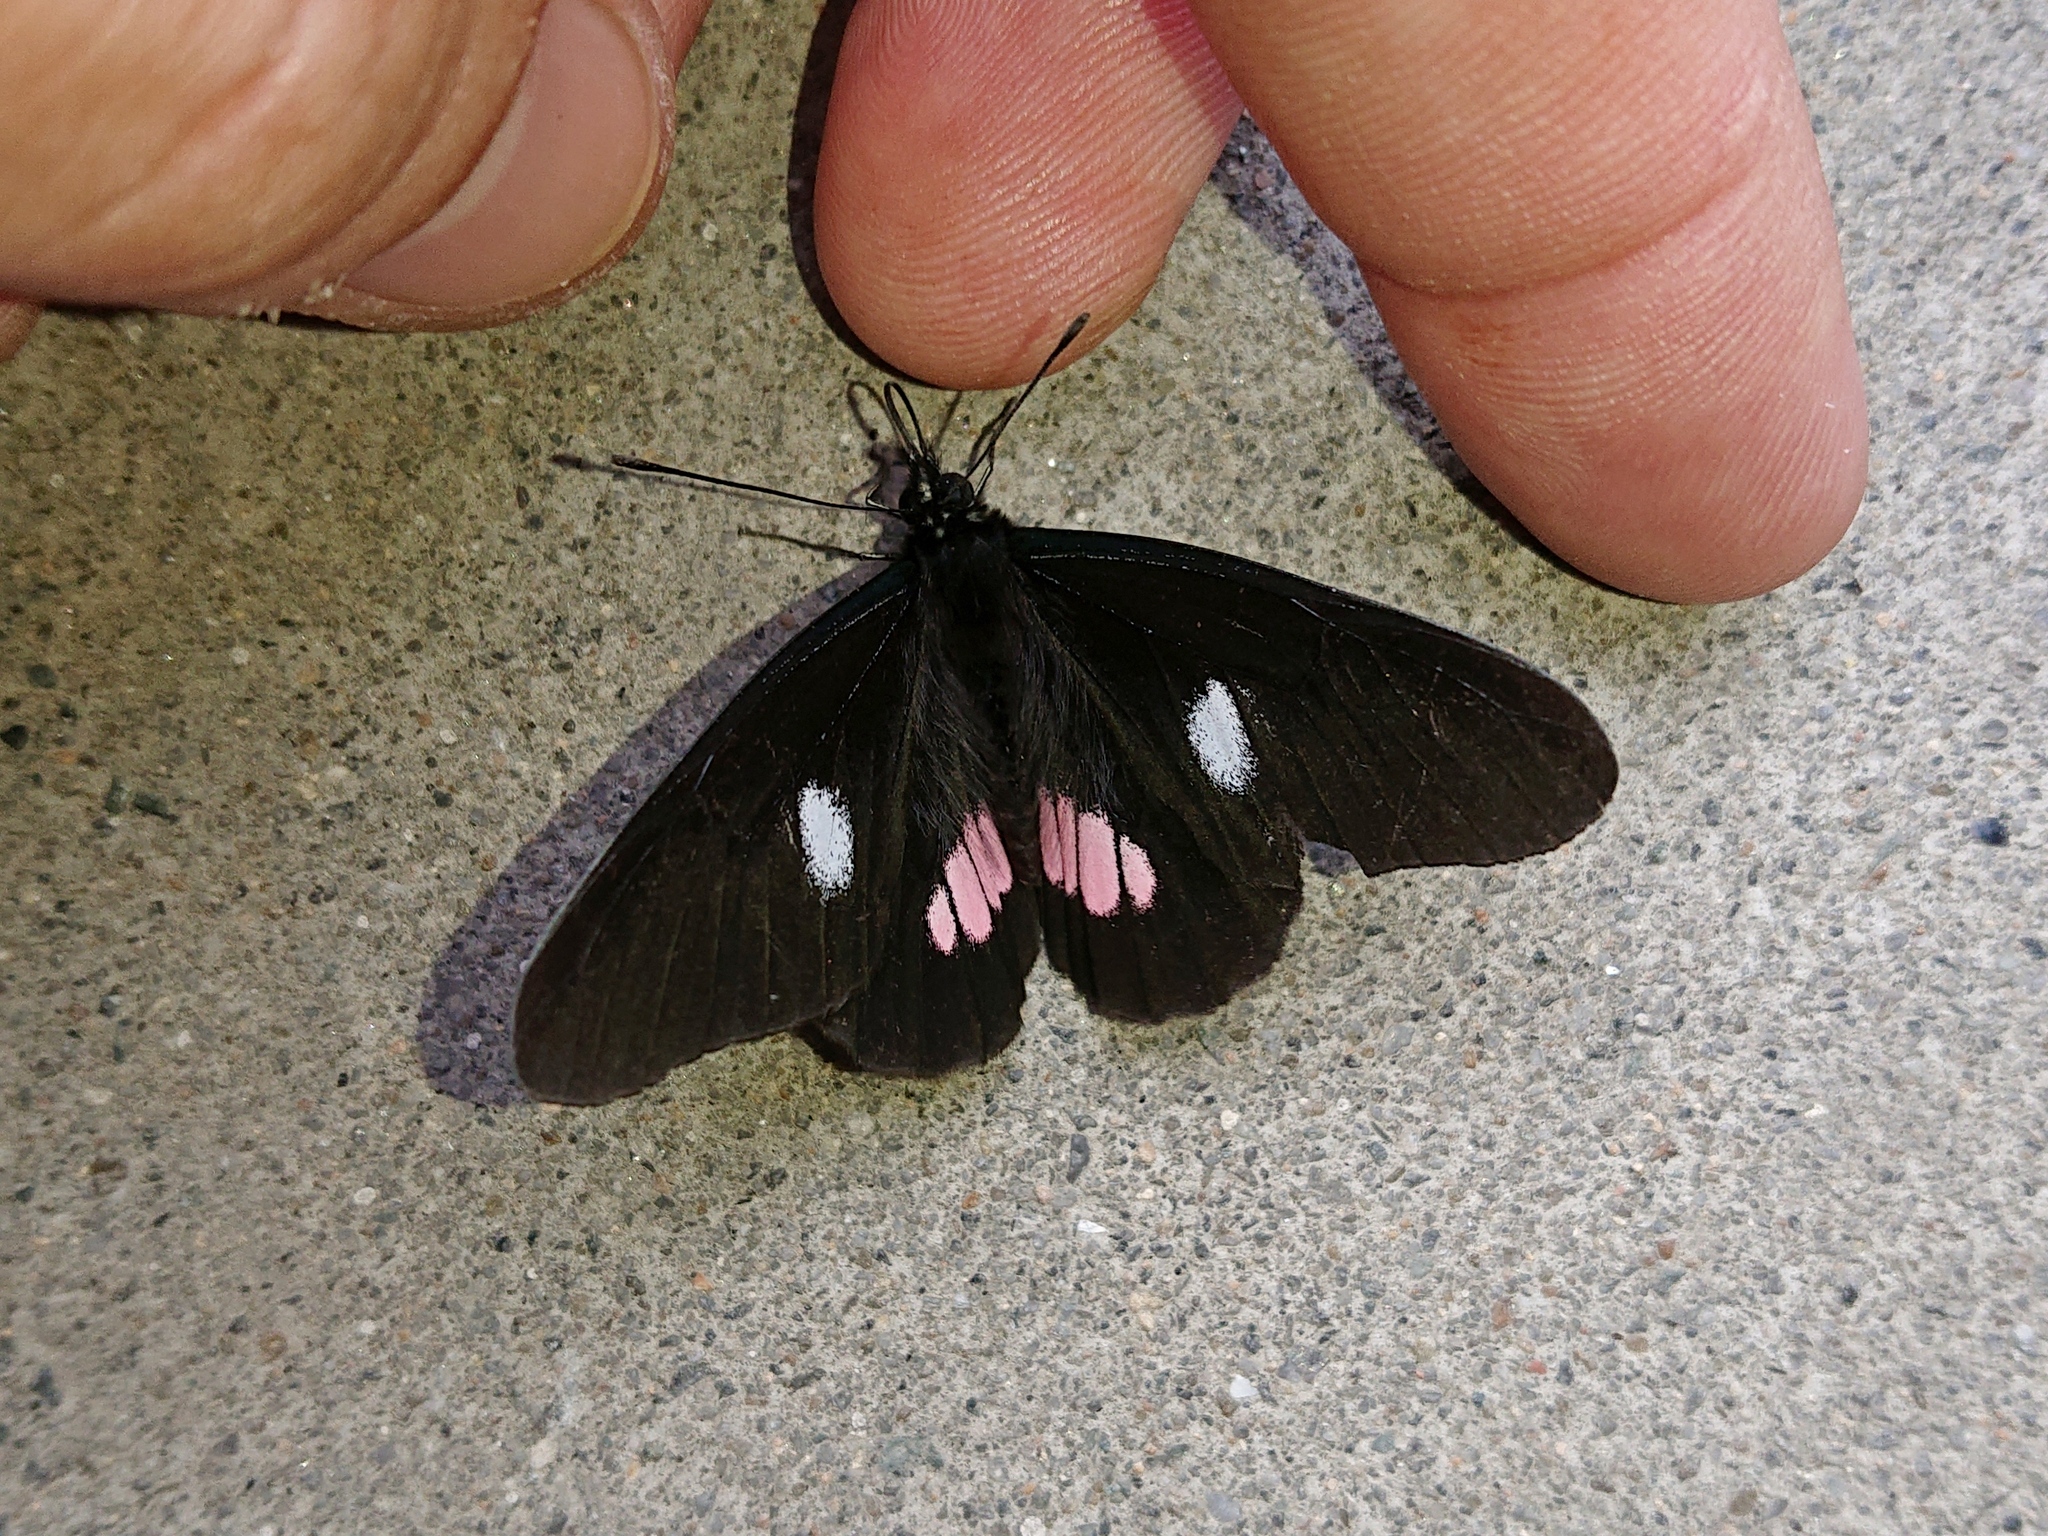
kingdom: Animalia
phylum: Arthropoda
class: Insecta
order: Lepidoptera
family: Pieridae
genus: Archonias
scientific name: Archonias brassolis
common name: Cattleheart white
